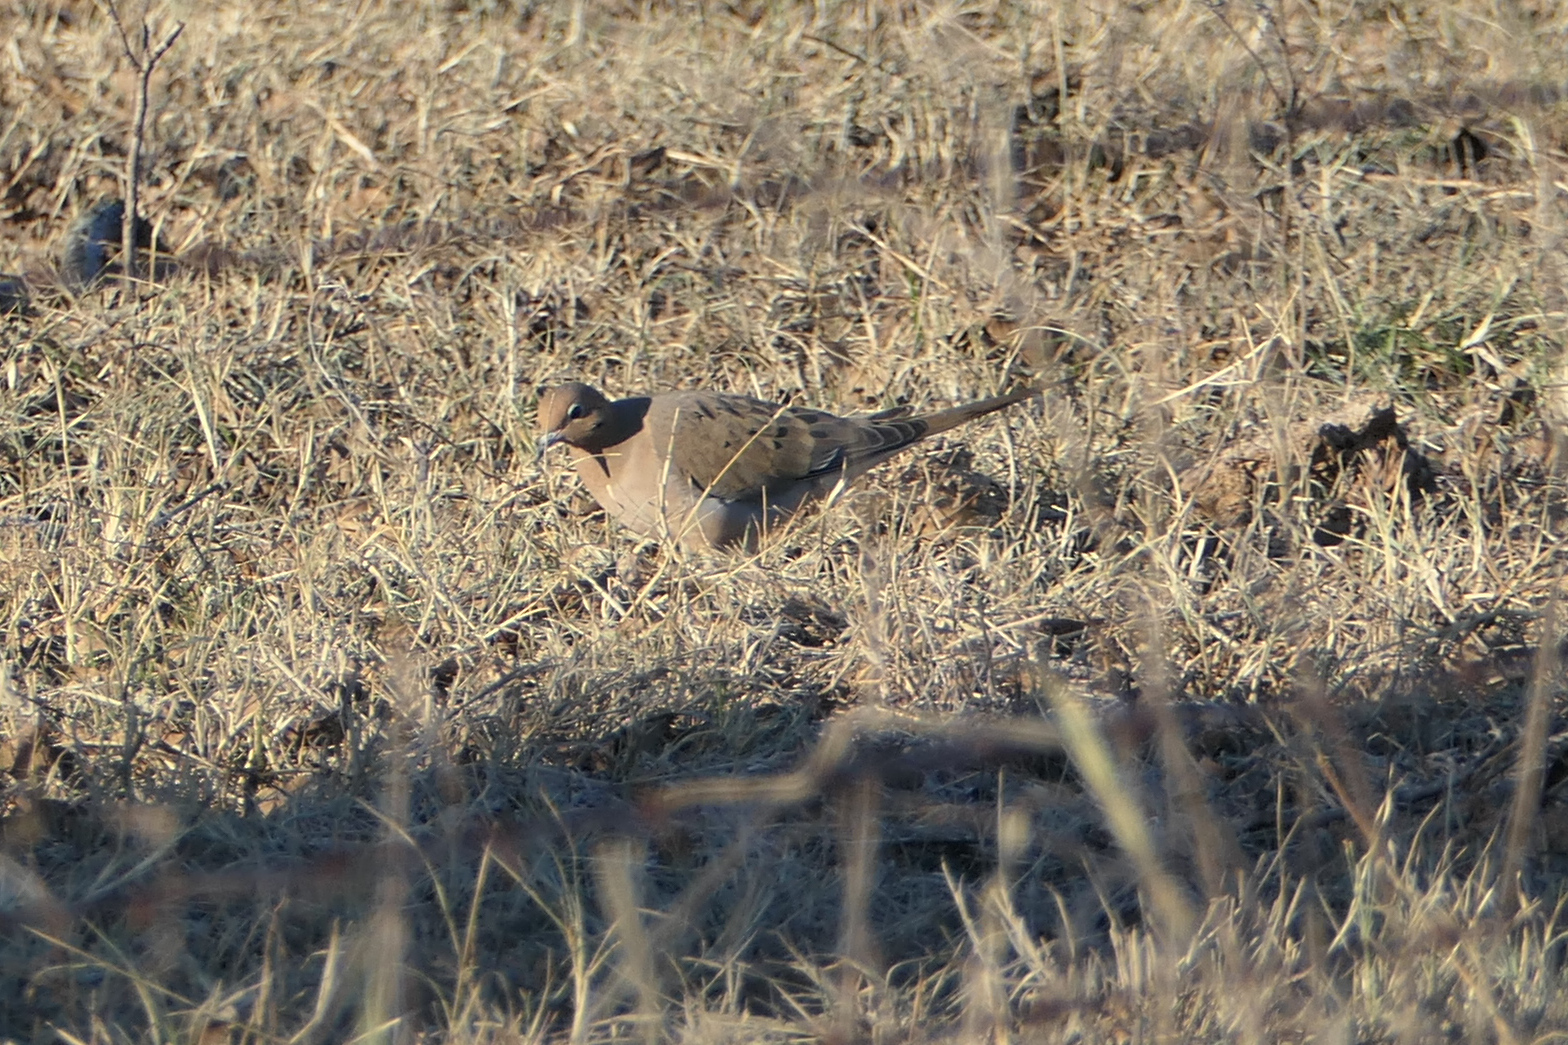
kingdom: Animalia
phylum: Chordata
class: Aves
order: Columbiformes
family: Columbidae
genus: Zenaida
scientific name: Zenaida macroura
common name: Mourning dove
